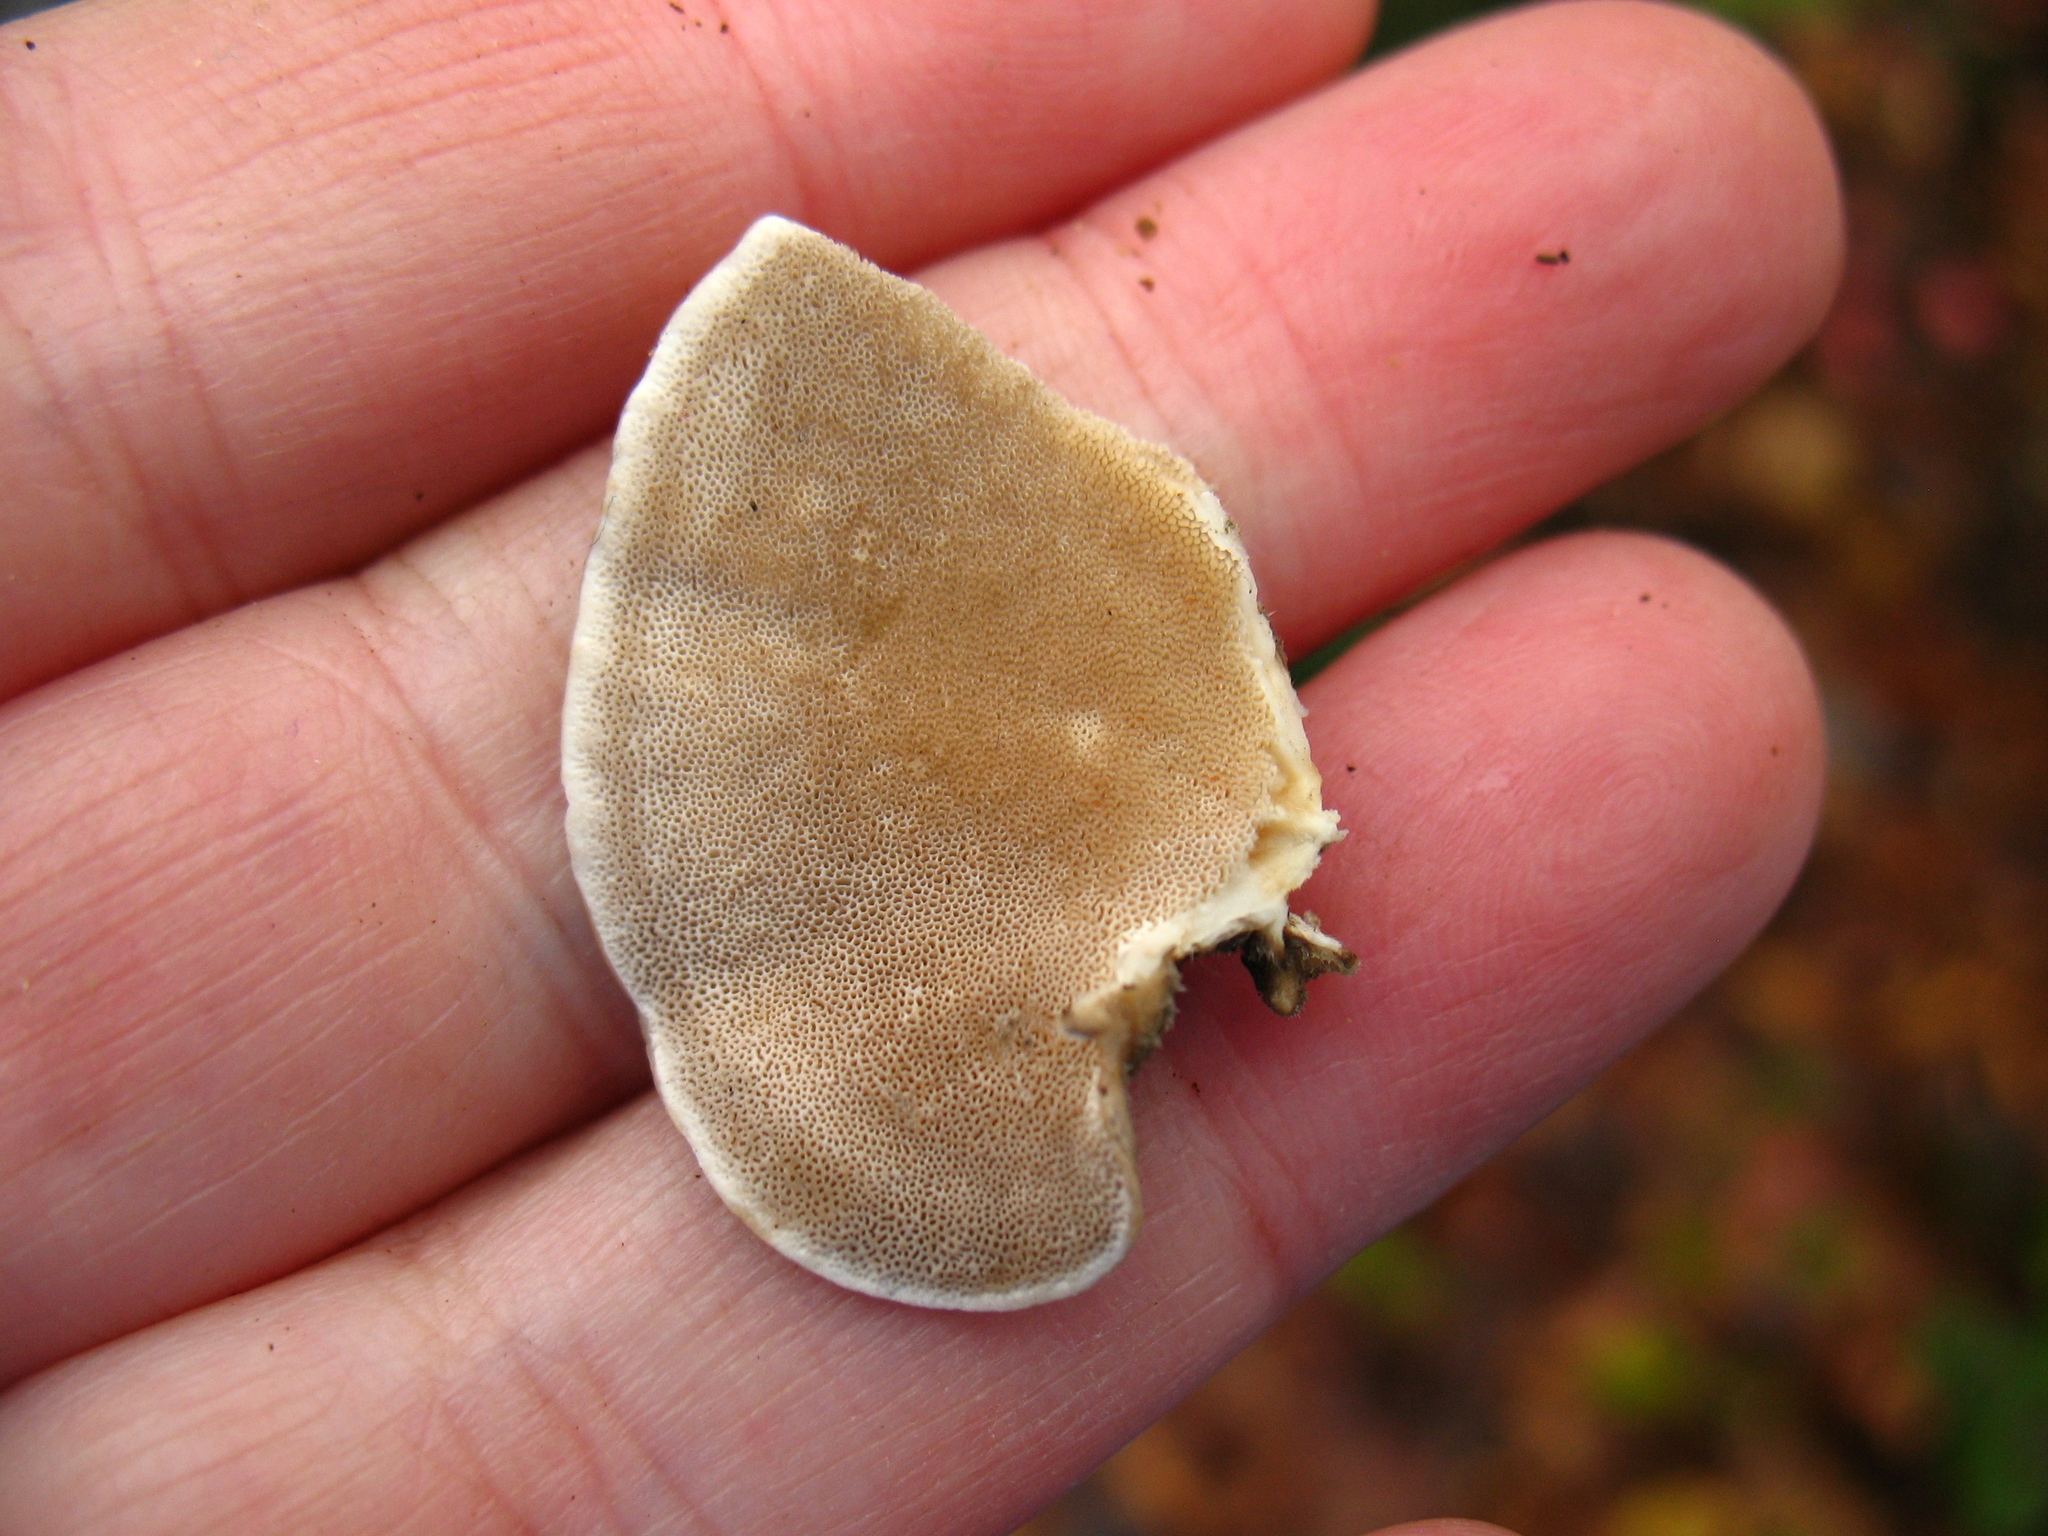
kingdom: Fungi
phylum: Basidiomycota
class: Agaricomycetes
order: Polyporales
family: Polyporaceae
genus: Trametes
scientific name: Trametes versicolor
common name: Turkeytail
